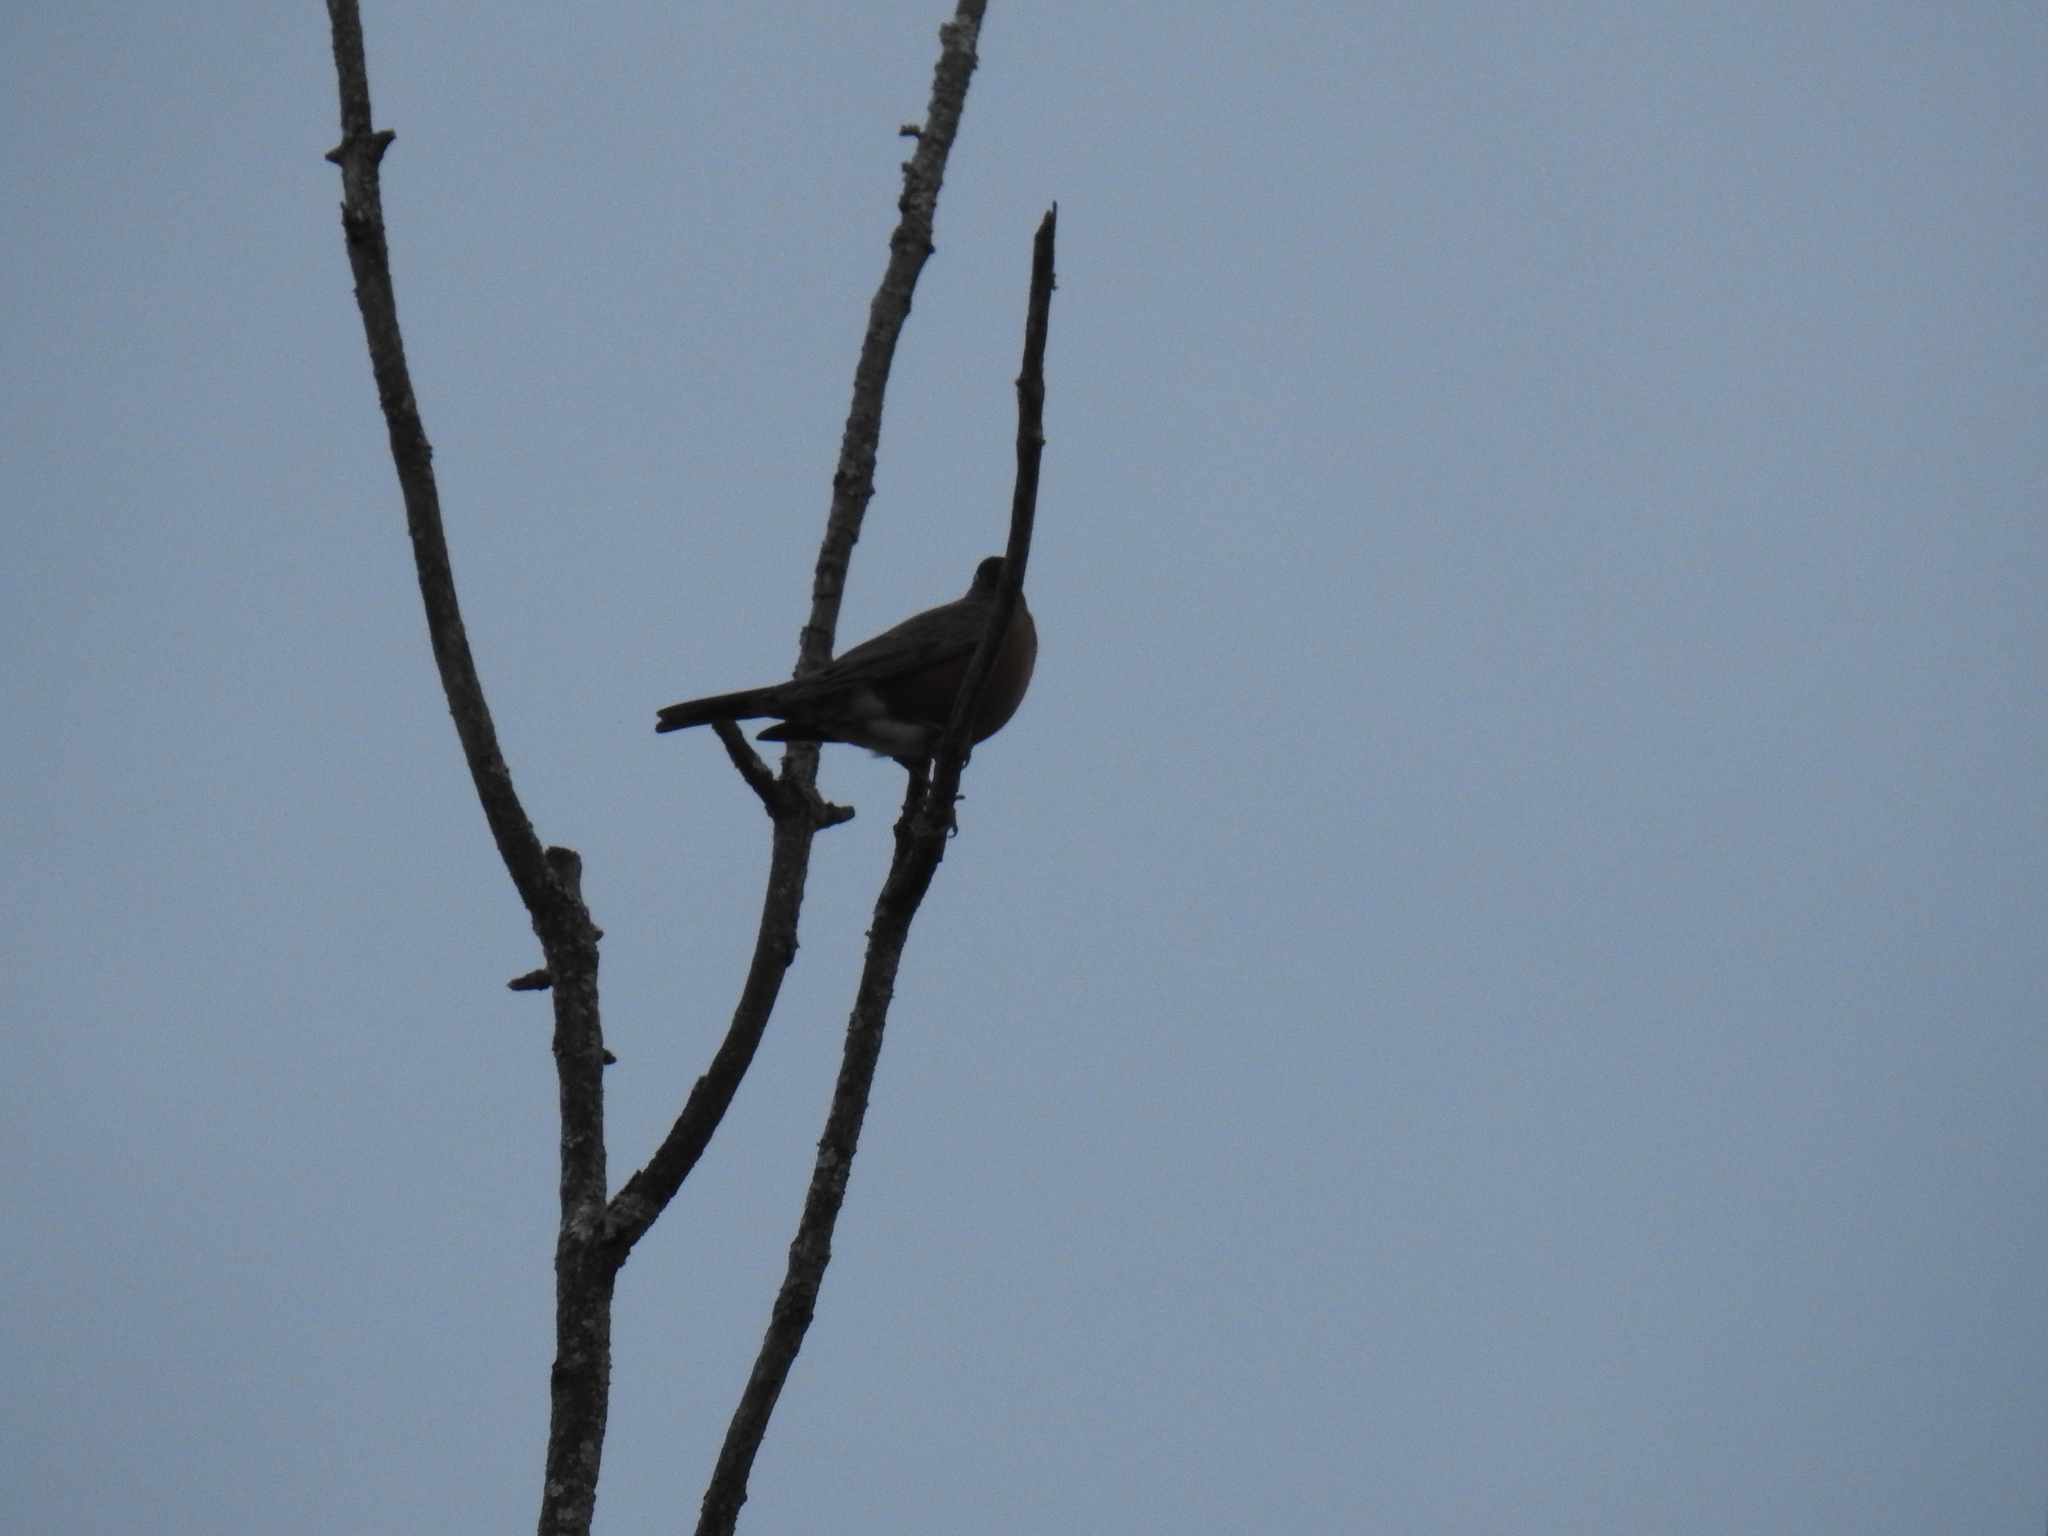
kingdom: Animalia
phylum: Chordata
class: Aves
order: Passeriformes
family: Turdidae
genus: Turdus
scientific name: Turdus migratorius
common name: American robin
